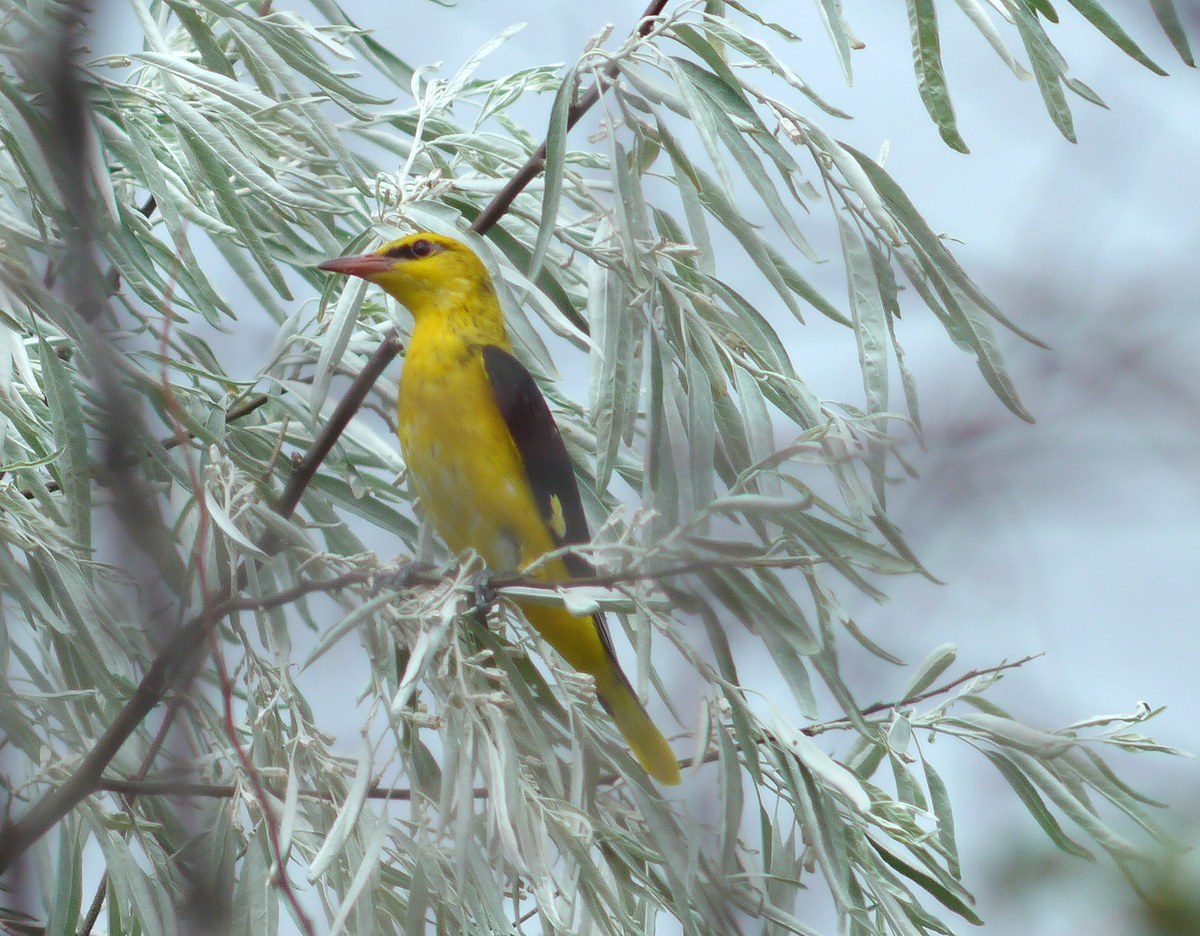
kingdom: Animalia
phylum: Chordata
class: Aves
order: Passeriformes
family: Oriolidae
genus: Oriolus
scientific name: Oriolus oriolus
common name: Eurasian golden oriole
